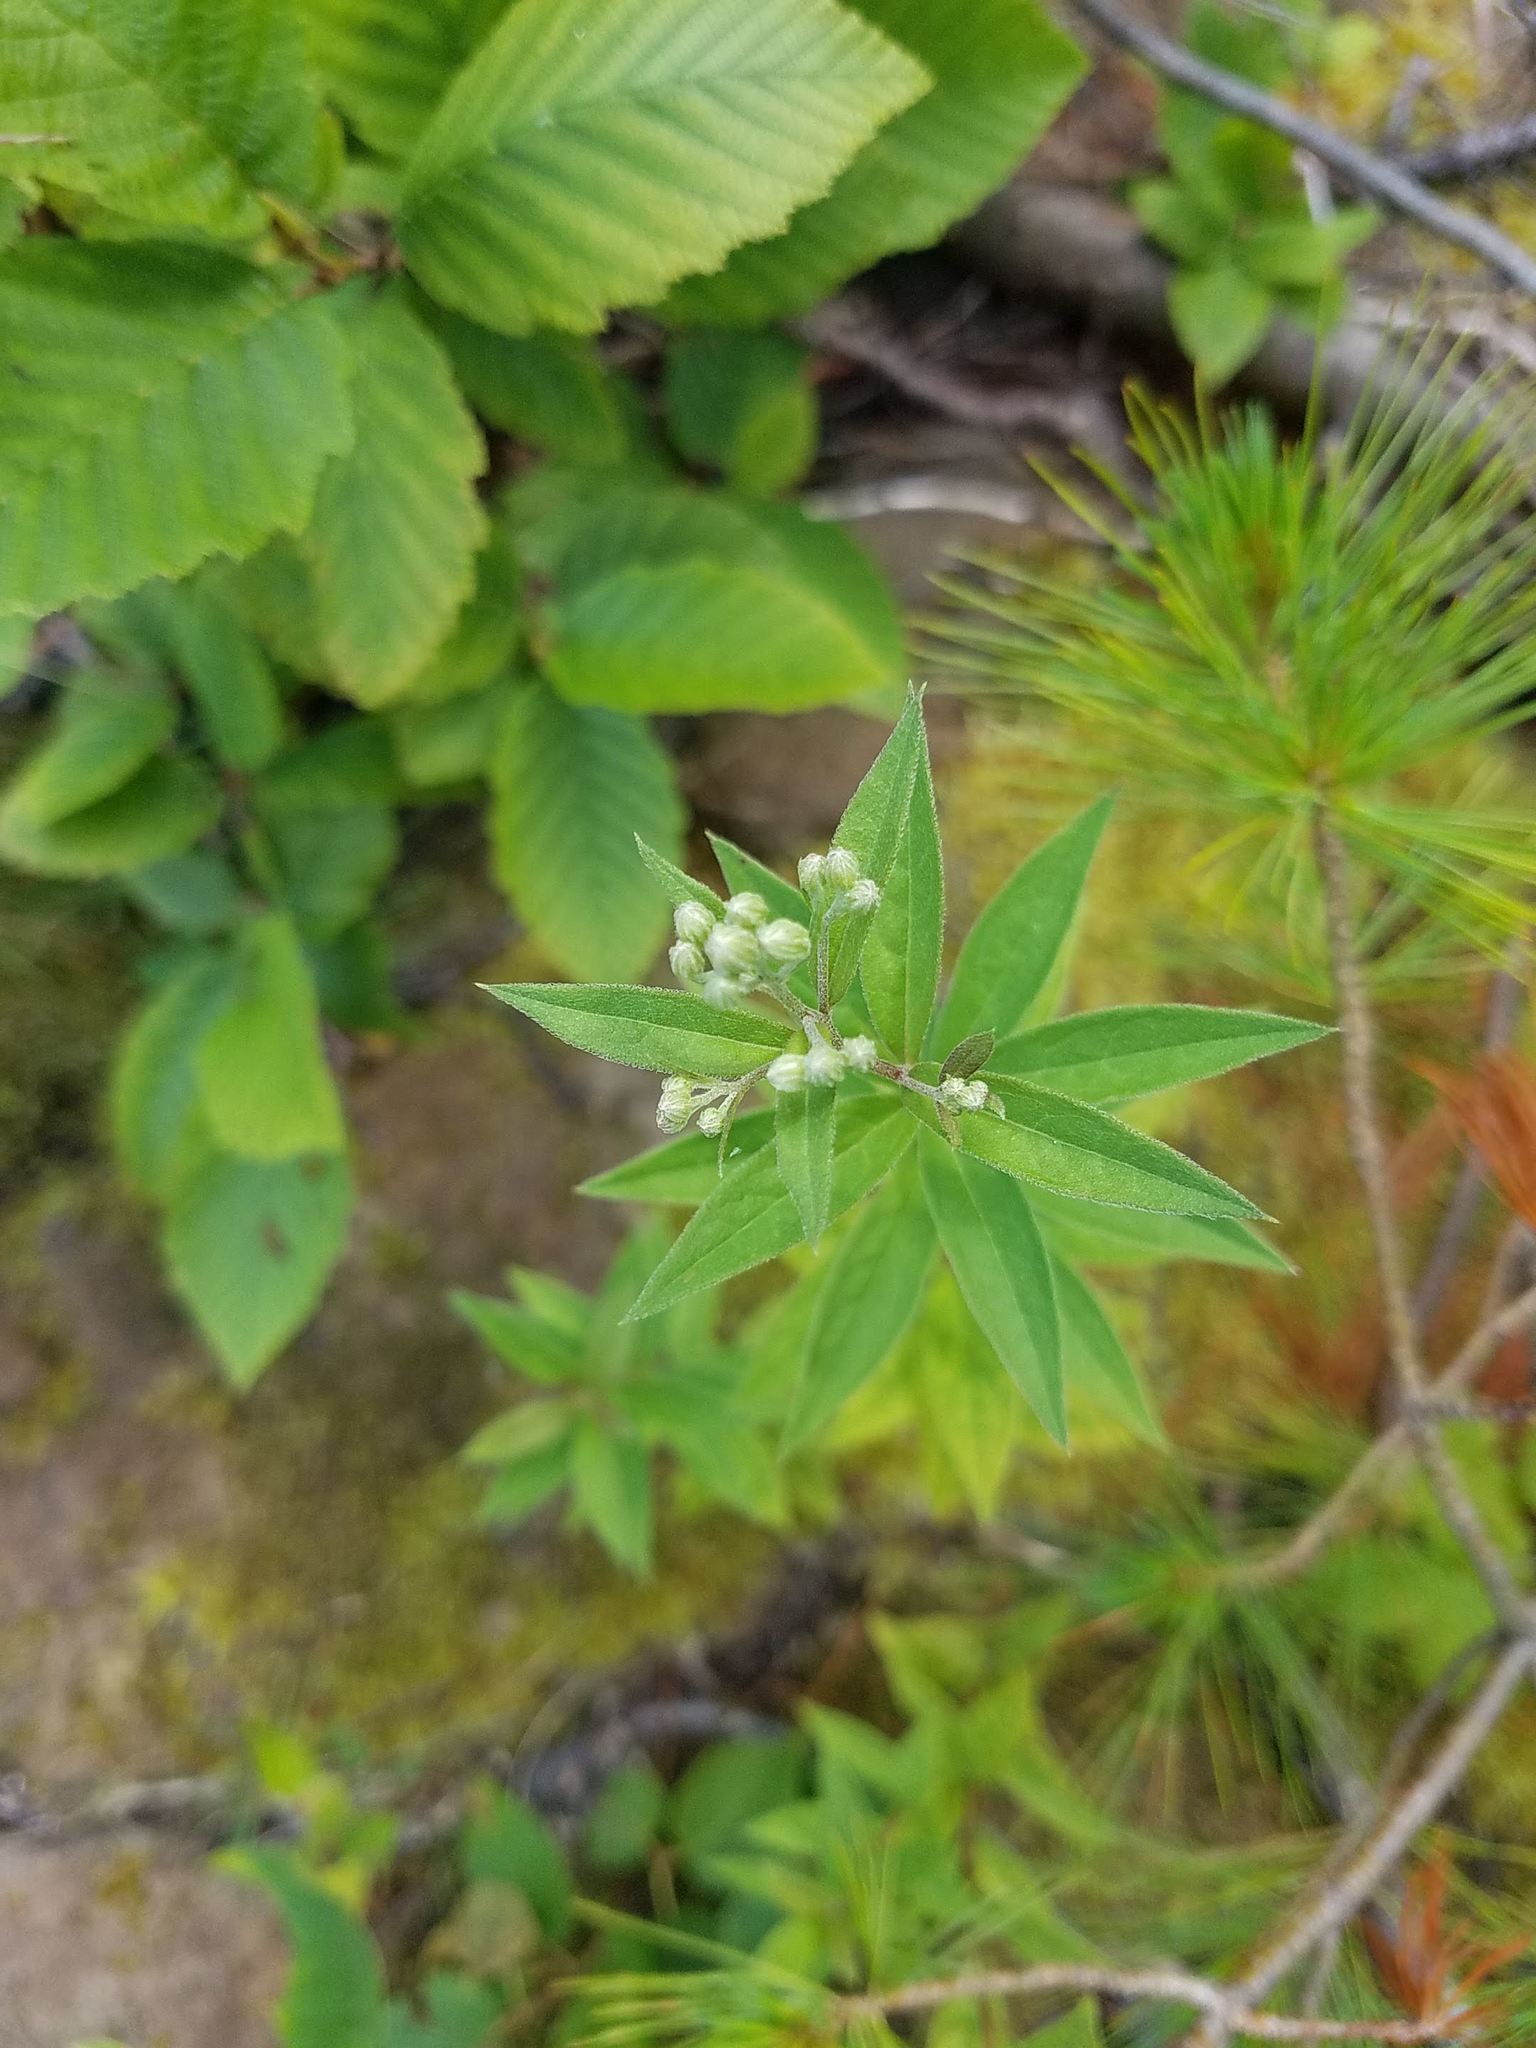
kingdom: Plantae
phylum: Tracheophyta
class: Magnoliopsida
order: Asterales
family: Asteraceae
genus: Doellingeria
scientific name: Doellingeria umbellata
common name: Flat-top white aster
